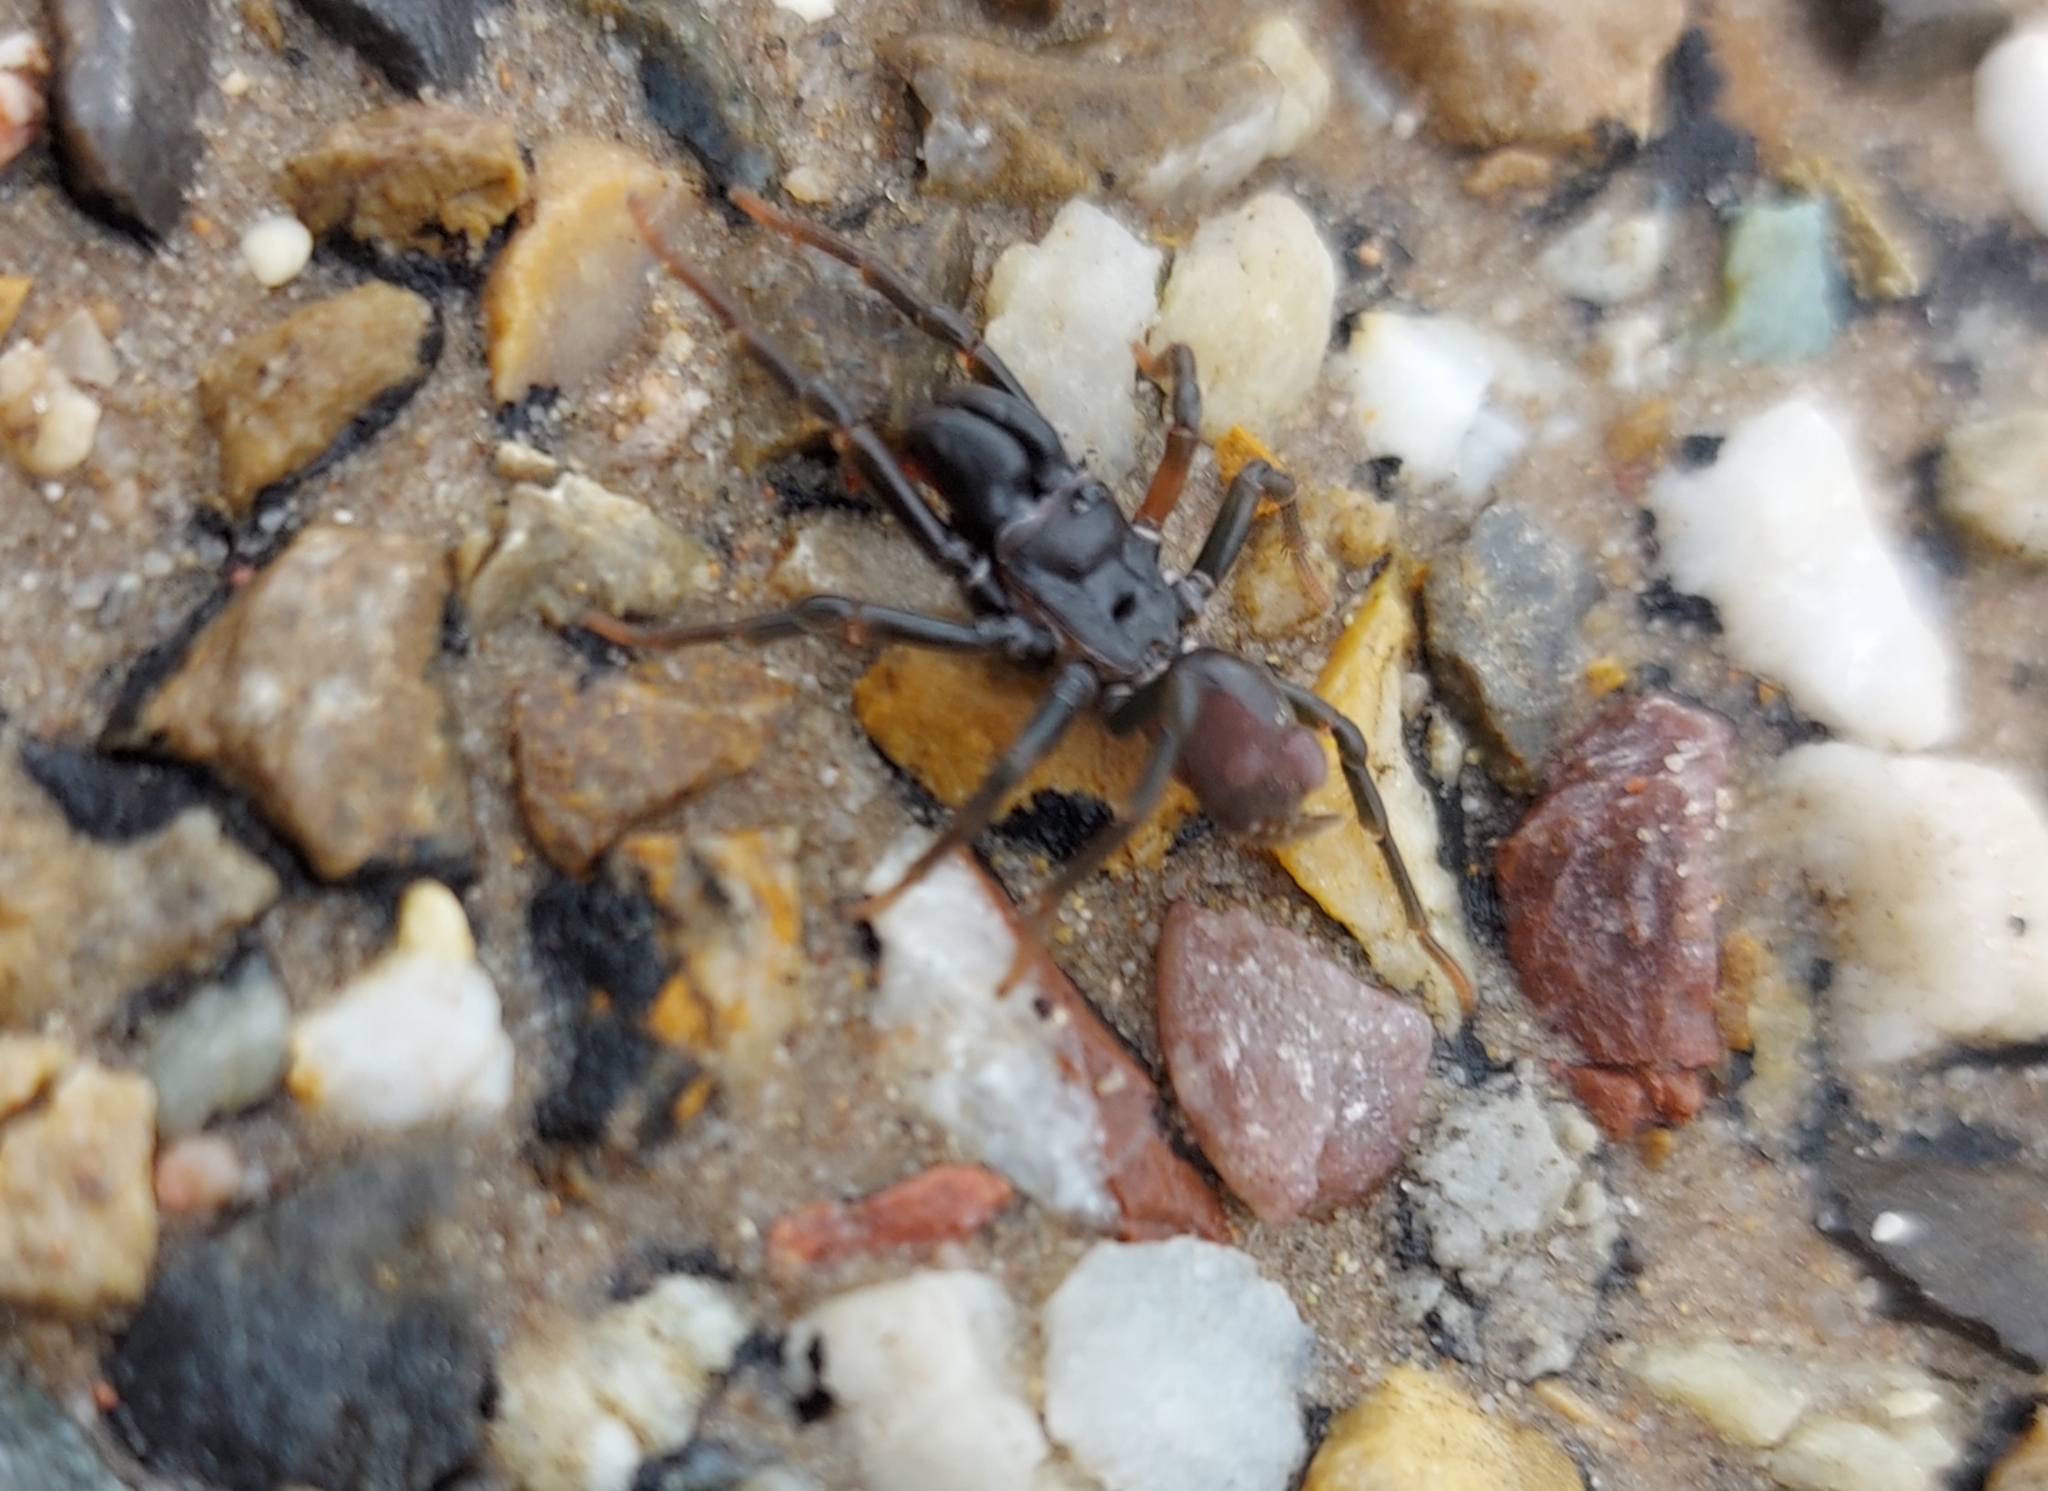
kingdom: Animalia
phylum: Arthropoda
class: Arachnida
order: Araneae
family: Atypidae
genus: Atypus
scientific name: Atypus affinis
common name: Purse web spider
